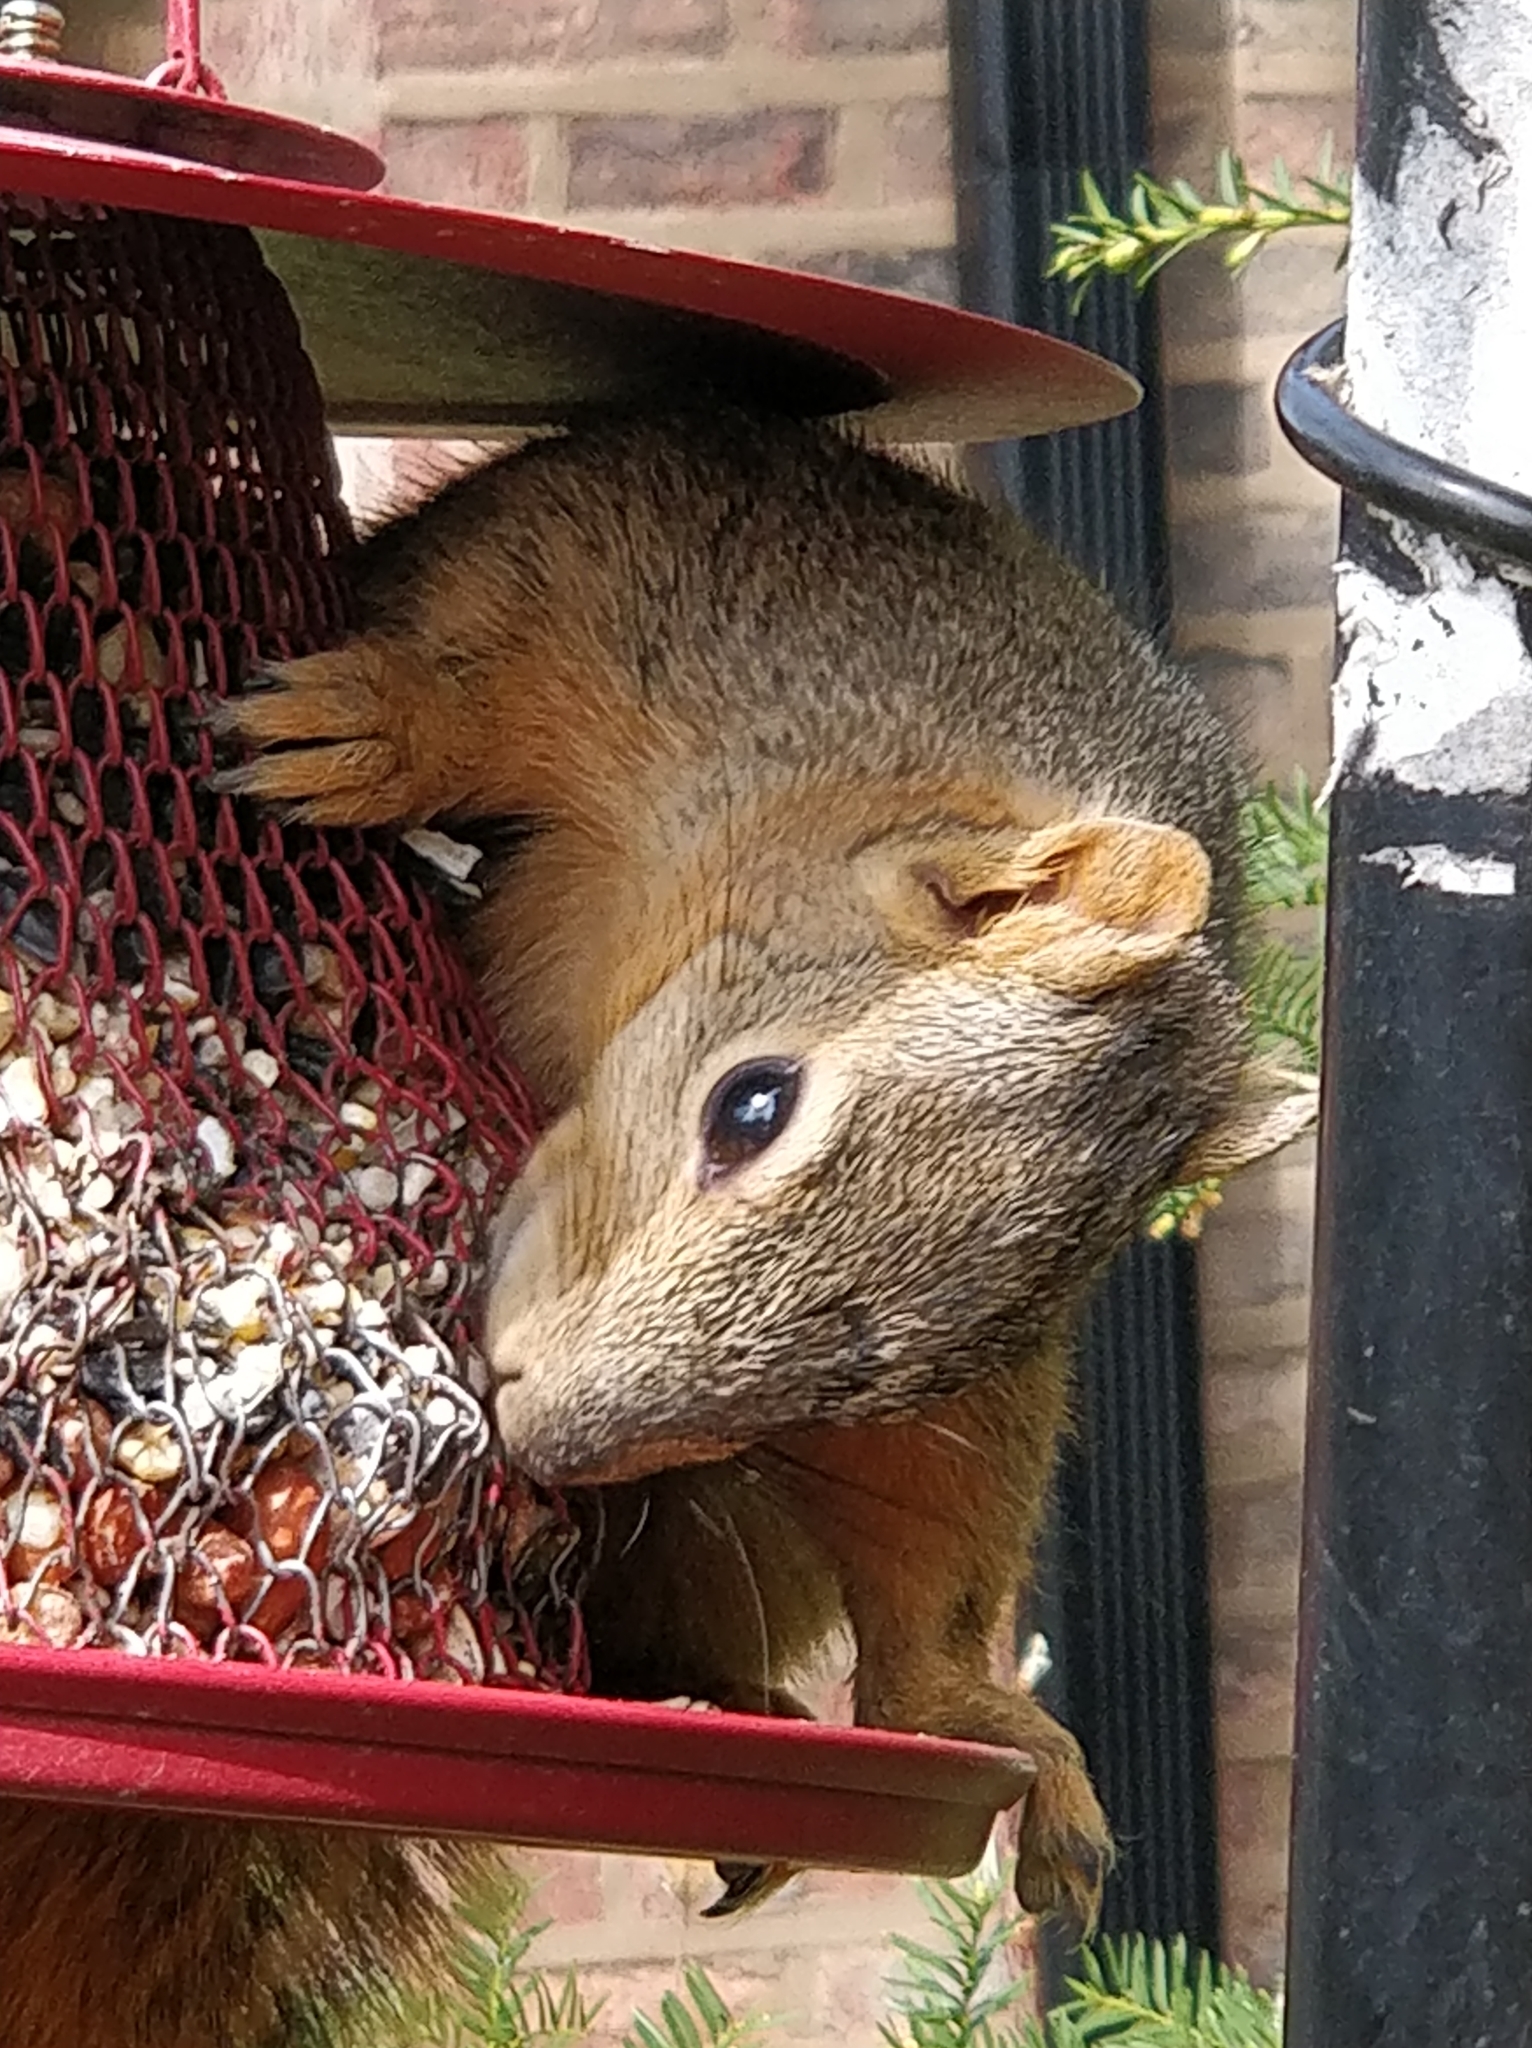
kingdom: Animalia
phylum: Chordata
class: Mammalia
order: Rodentia
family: Sciuridae
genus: Sciurus
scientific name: Sciurus niger
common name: Fox squirrel
